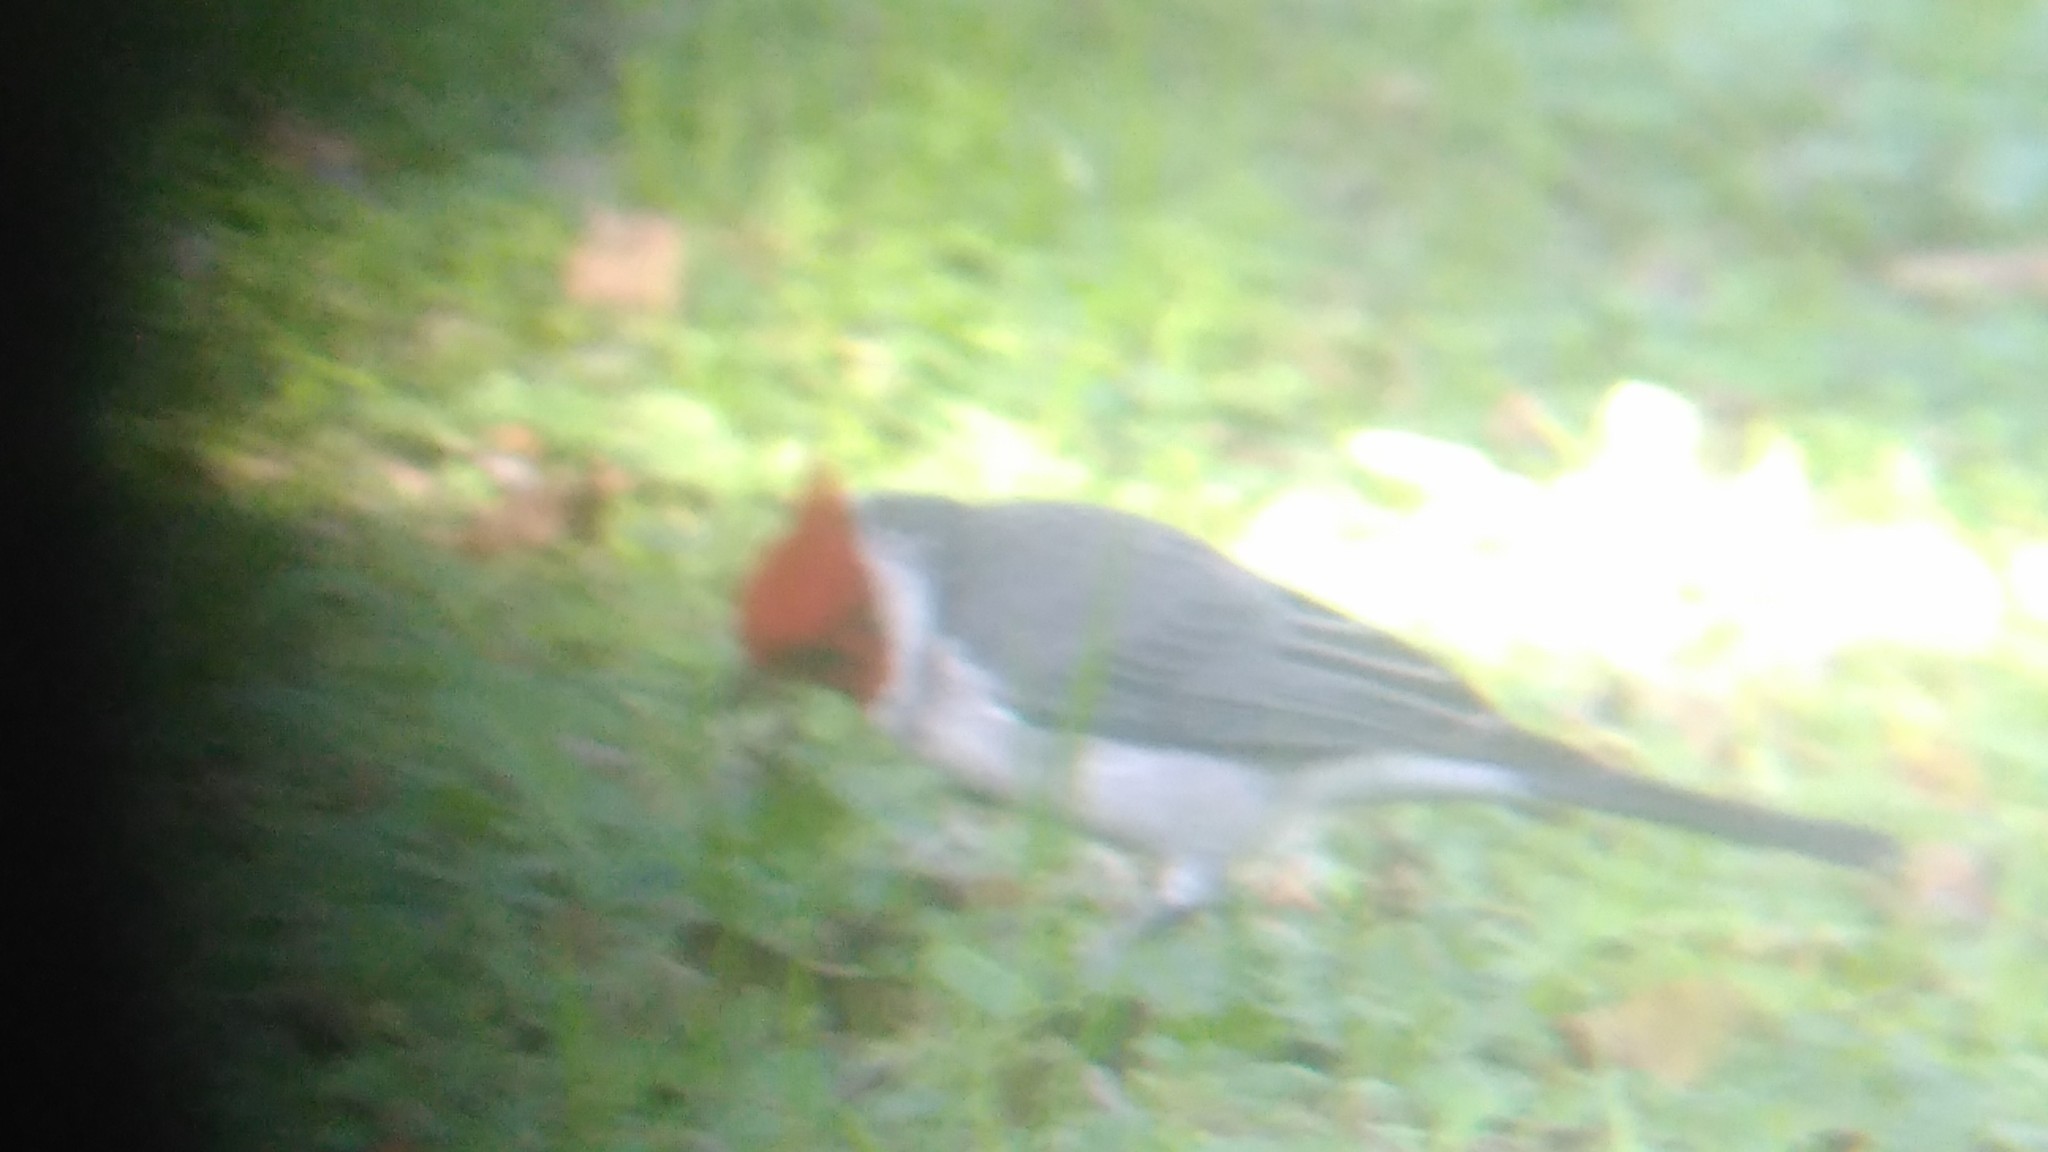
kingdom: Animalia
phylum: Chordata
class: Aves
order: Passeriformes
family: Thraupidae
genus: Paroaria
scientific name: Paroaria coronata
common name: Red-crested cardinal
